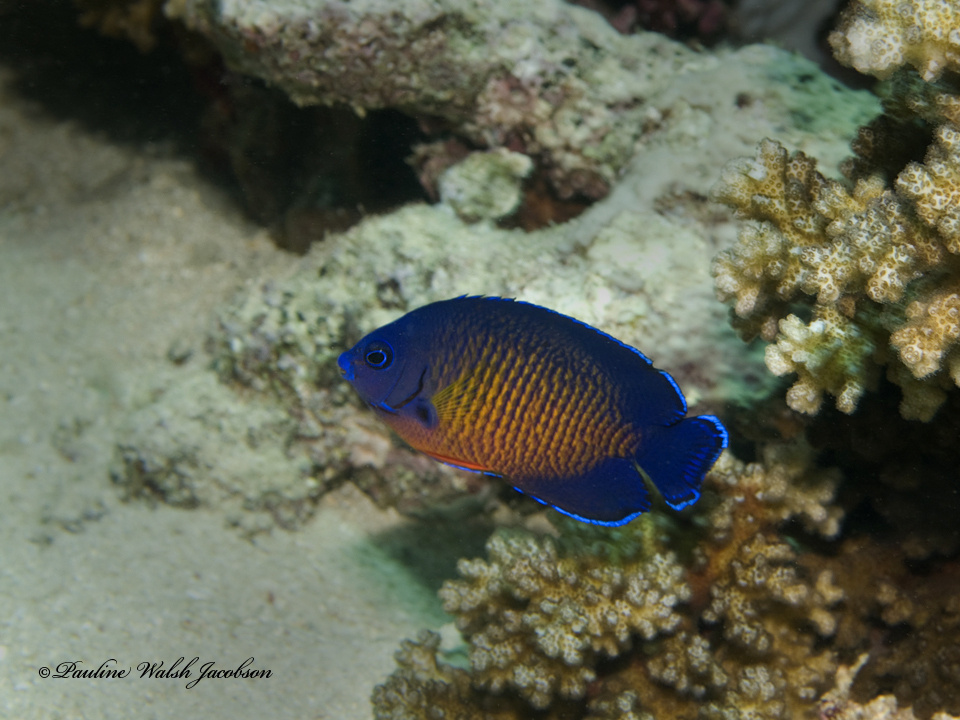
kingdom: Animalia
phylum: Chordata
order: Perciformes
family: Pomacanthidae
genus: Centropyge
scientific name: Centropyge bispinosa
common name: Coral beauty
